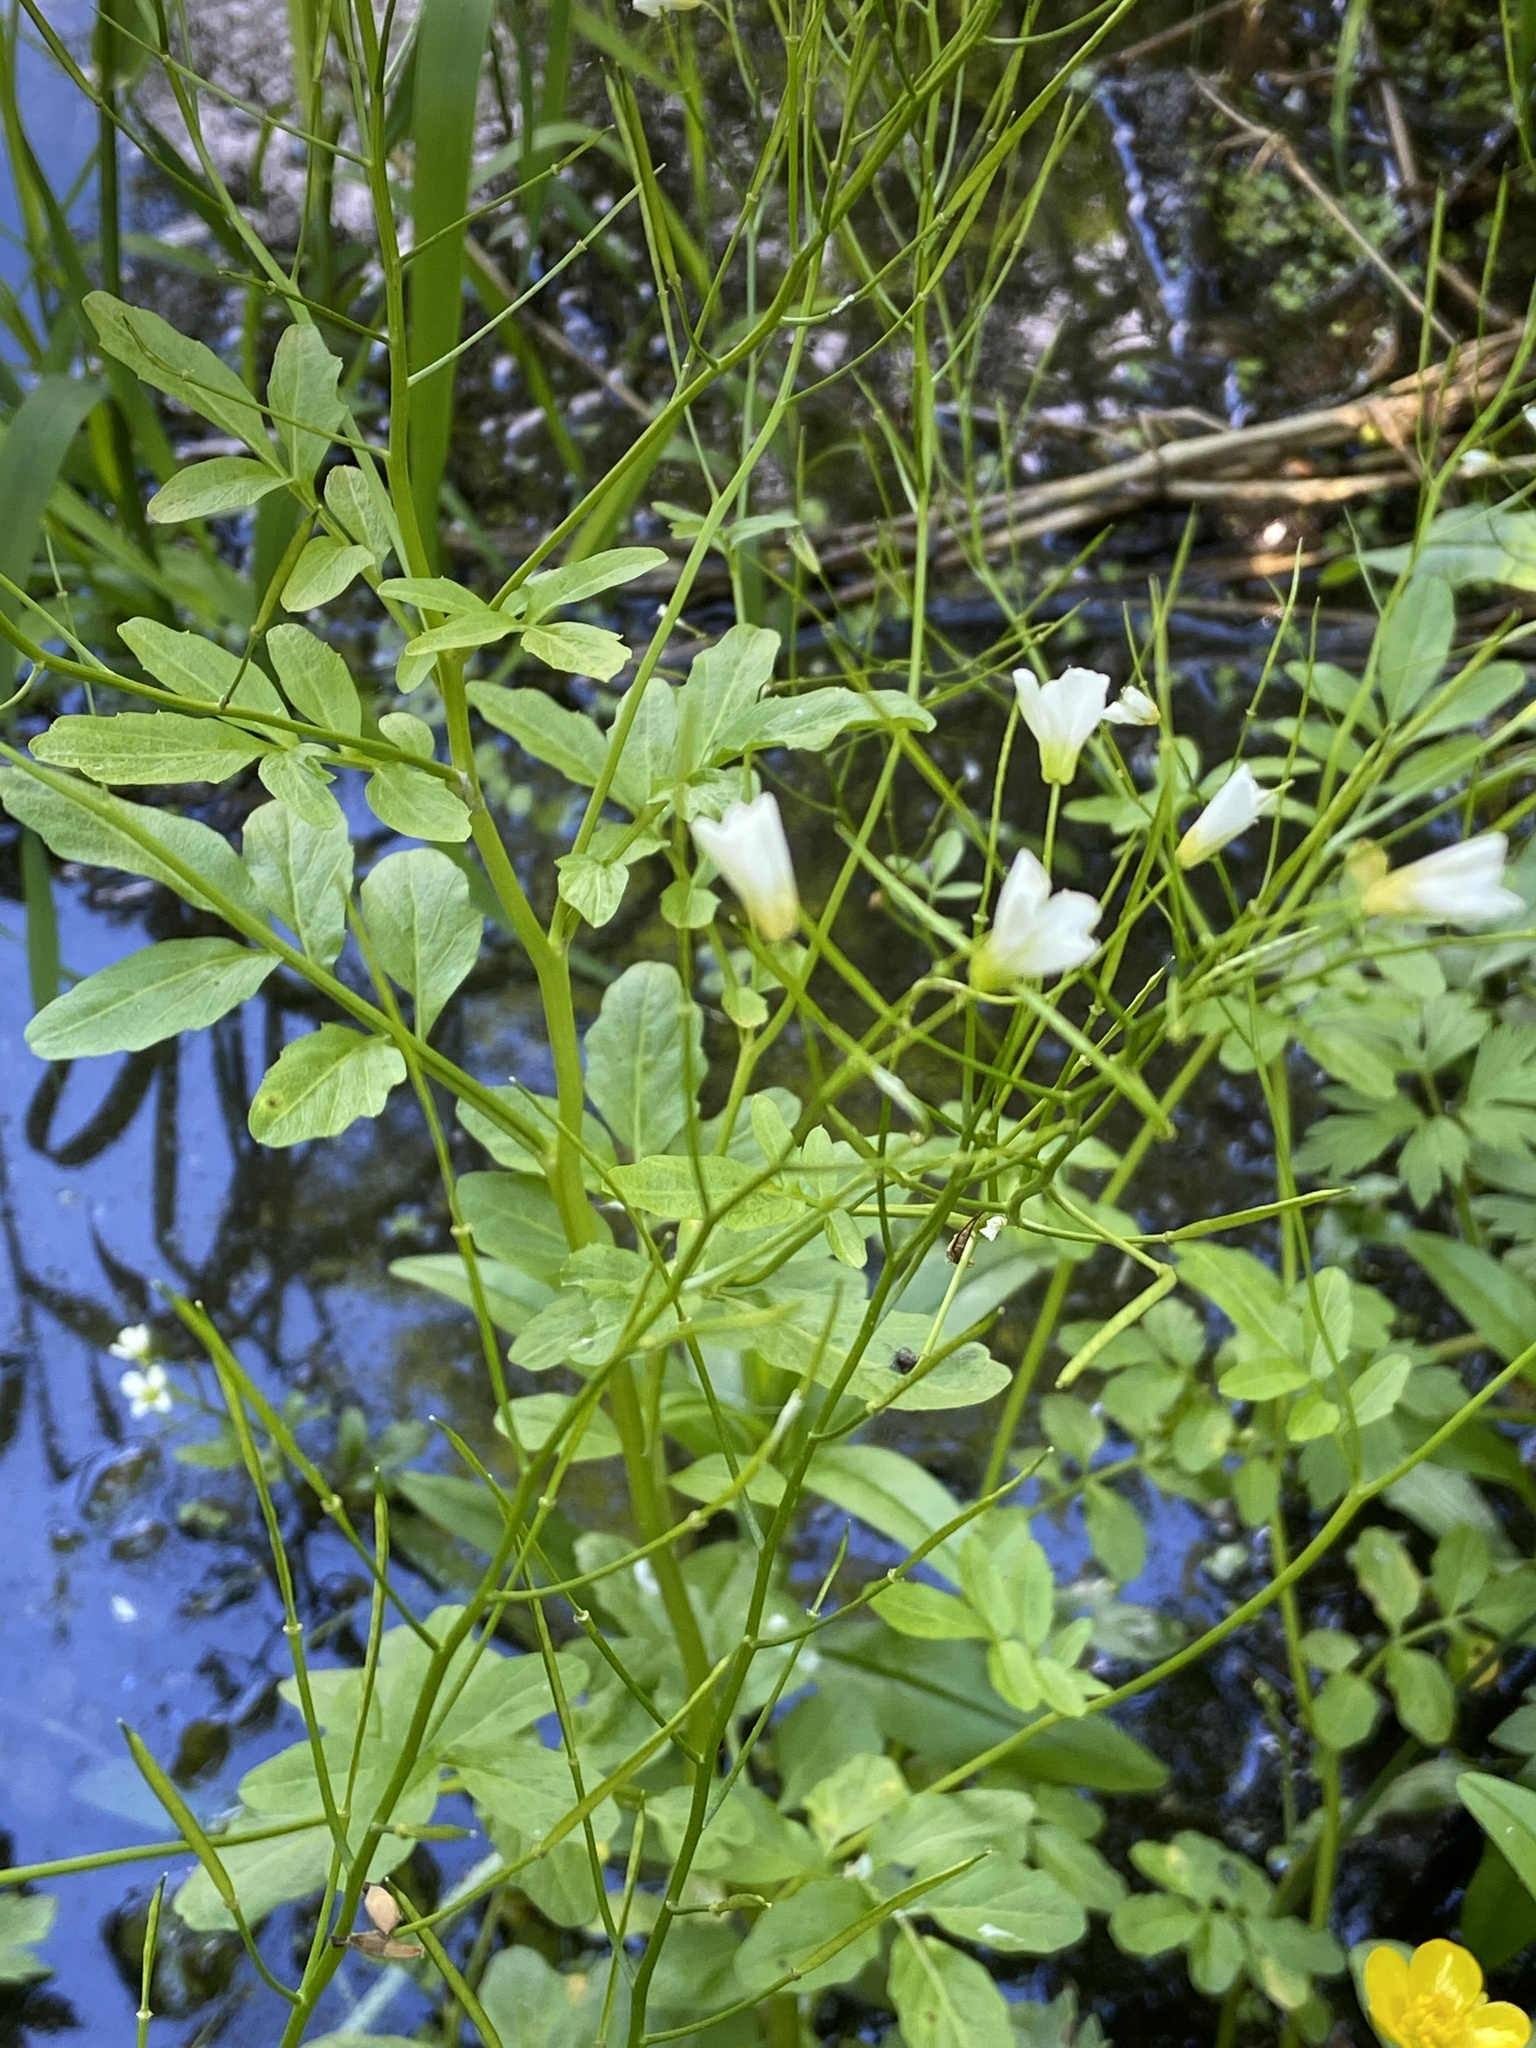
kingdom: Plantae
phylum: Tracheophyta
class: Magnoliopsida
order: Brassicales
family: Brassicaceae
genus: Cardamine
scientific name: Cardamine amara
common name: Large bitter-cress
